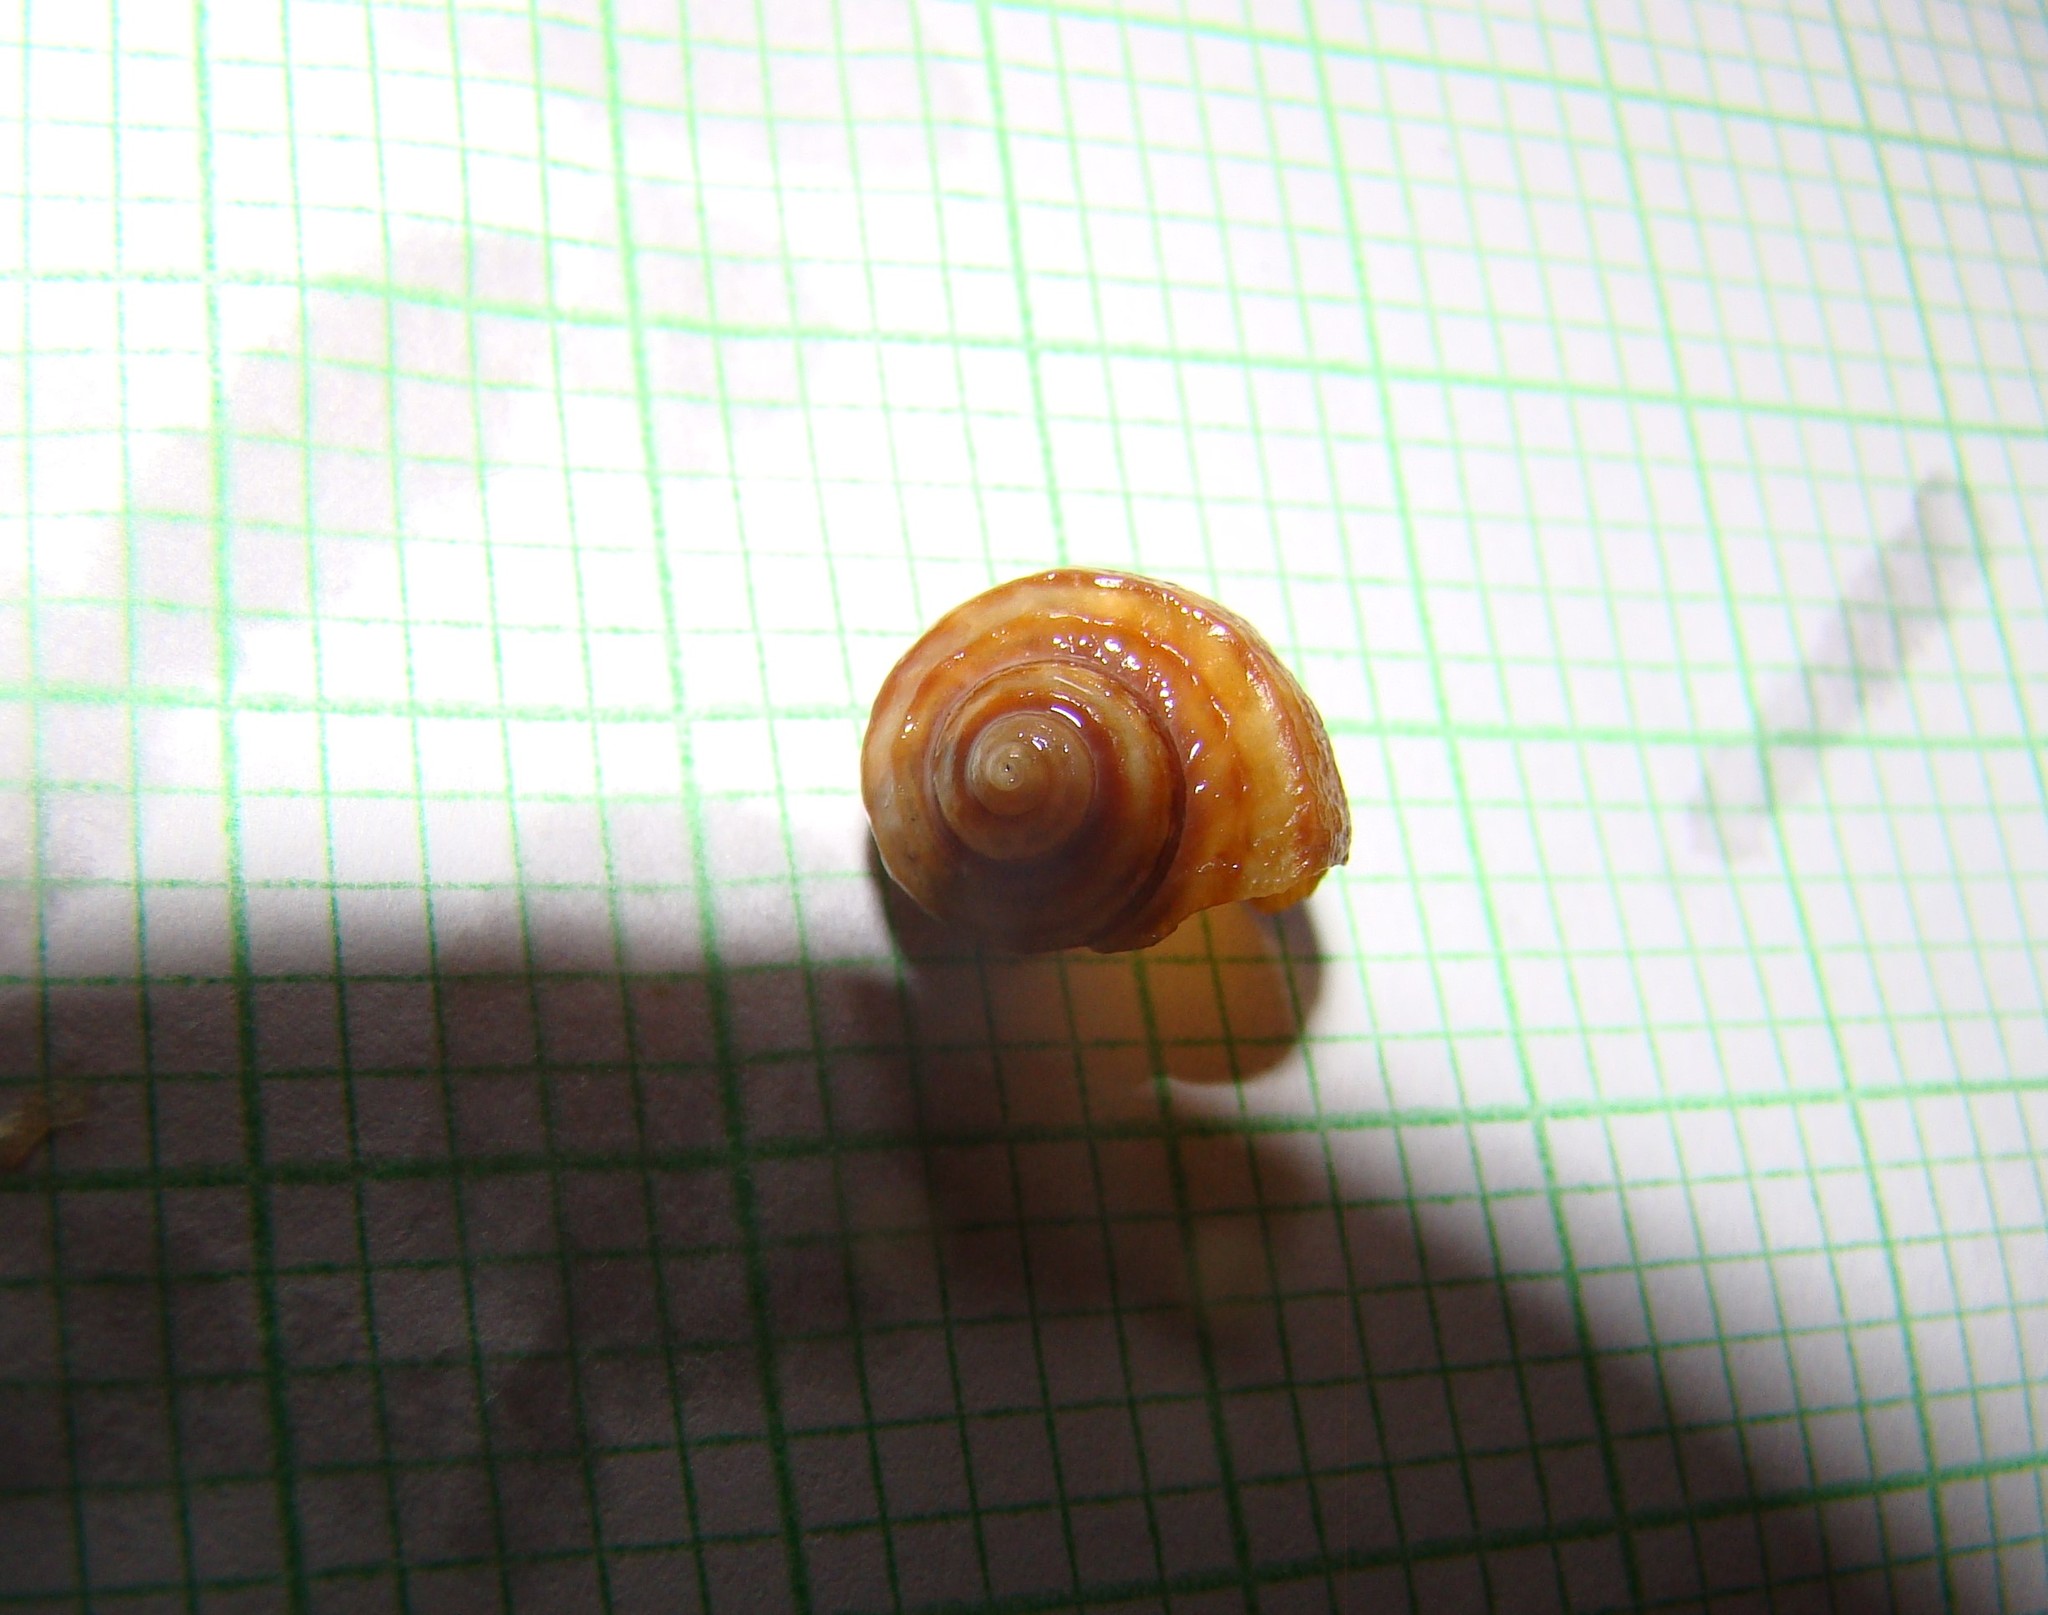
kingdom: Animalia
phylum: Mollusca
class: Gastropoda
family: Amphibolidae
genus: Amphibola
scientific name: Amphibola crenata
